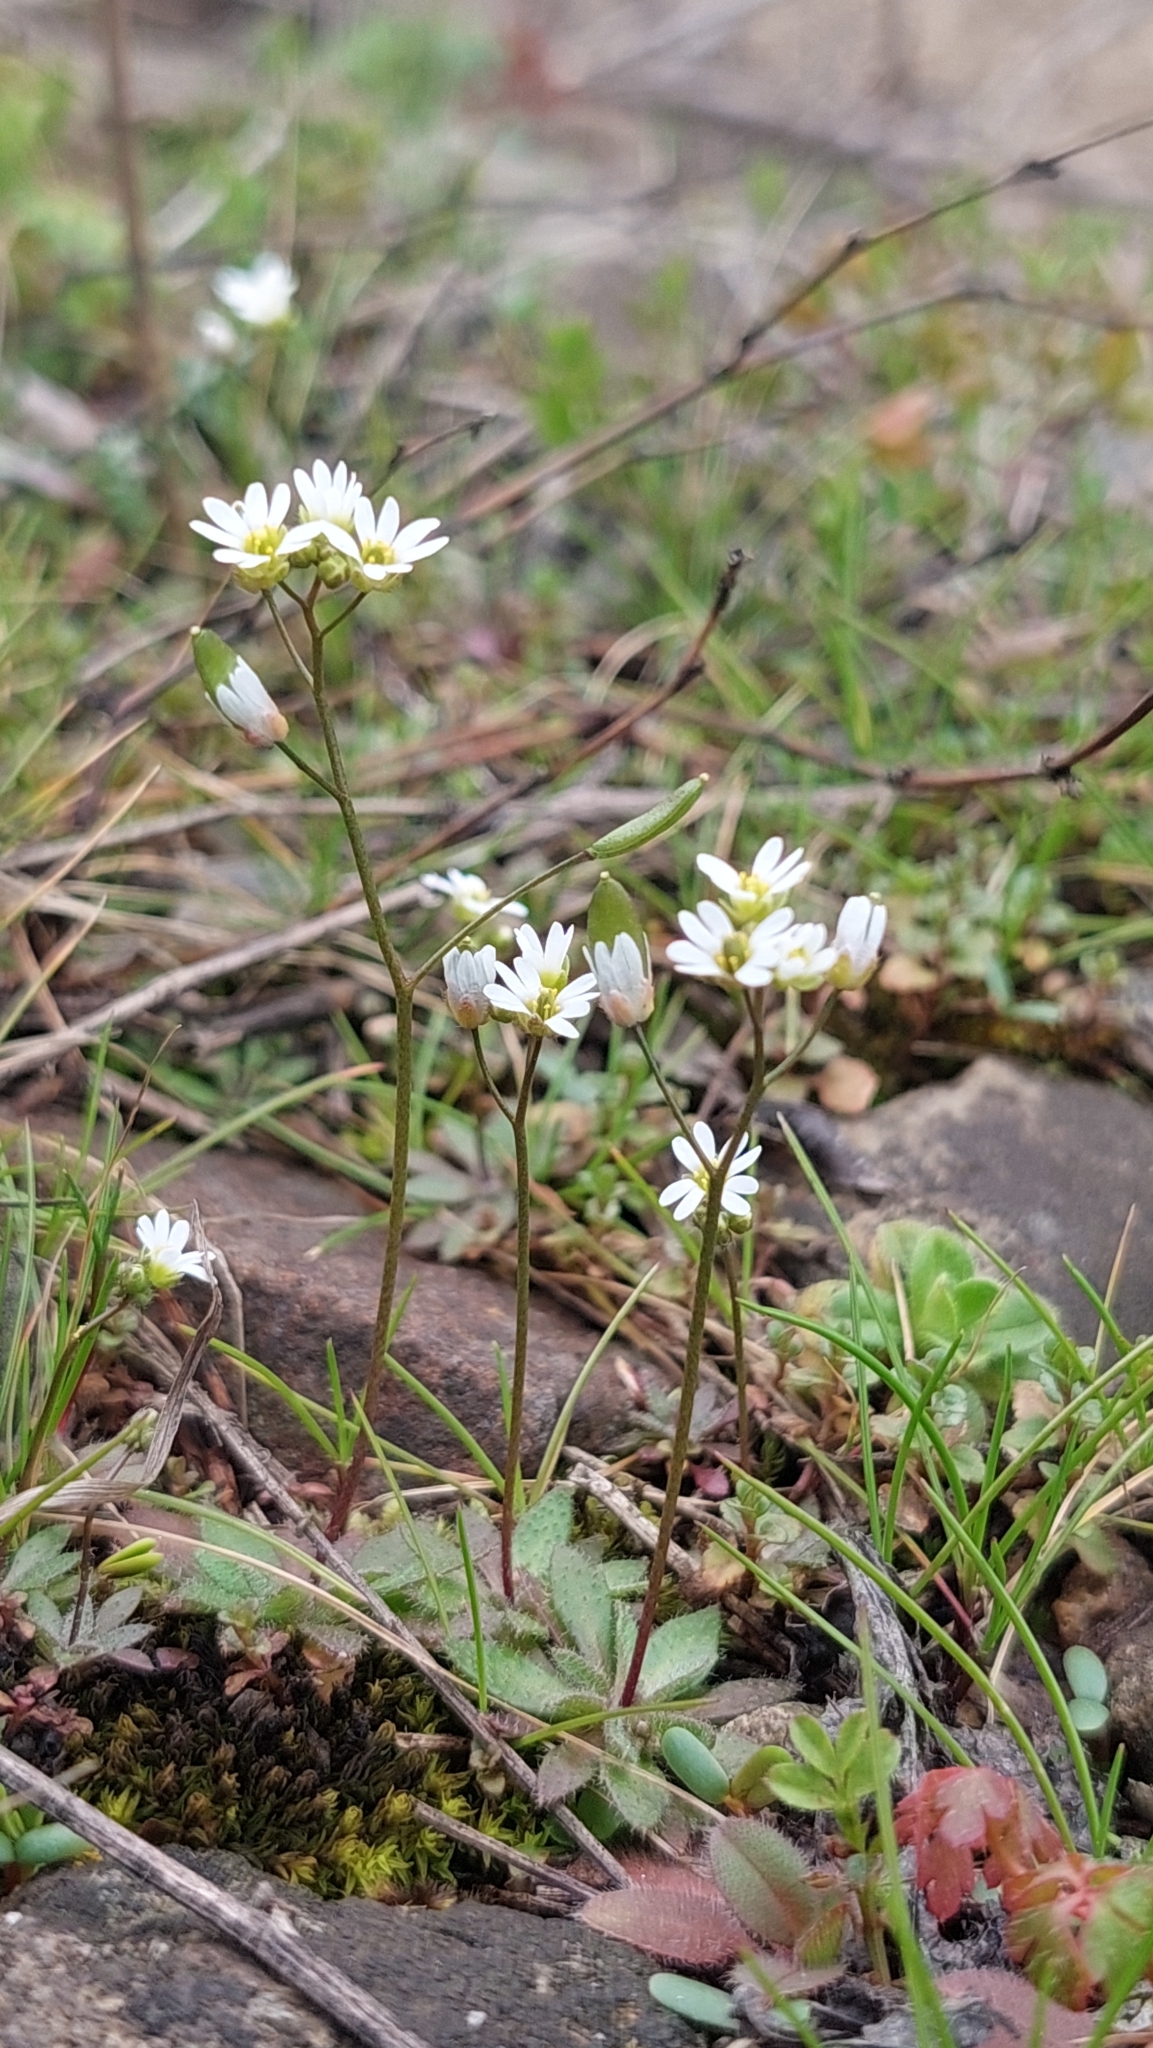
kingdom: Plantae
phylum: Tracheophyta
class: Magnoliopsida
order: Brassicales
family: Brassicaceae
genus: Draba
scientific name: Draba verna
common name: Spring draba
